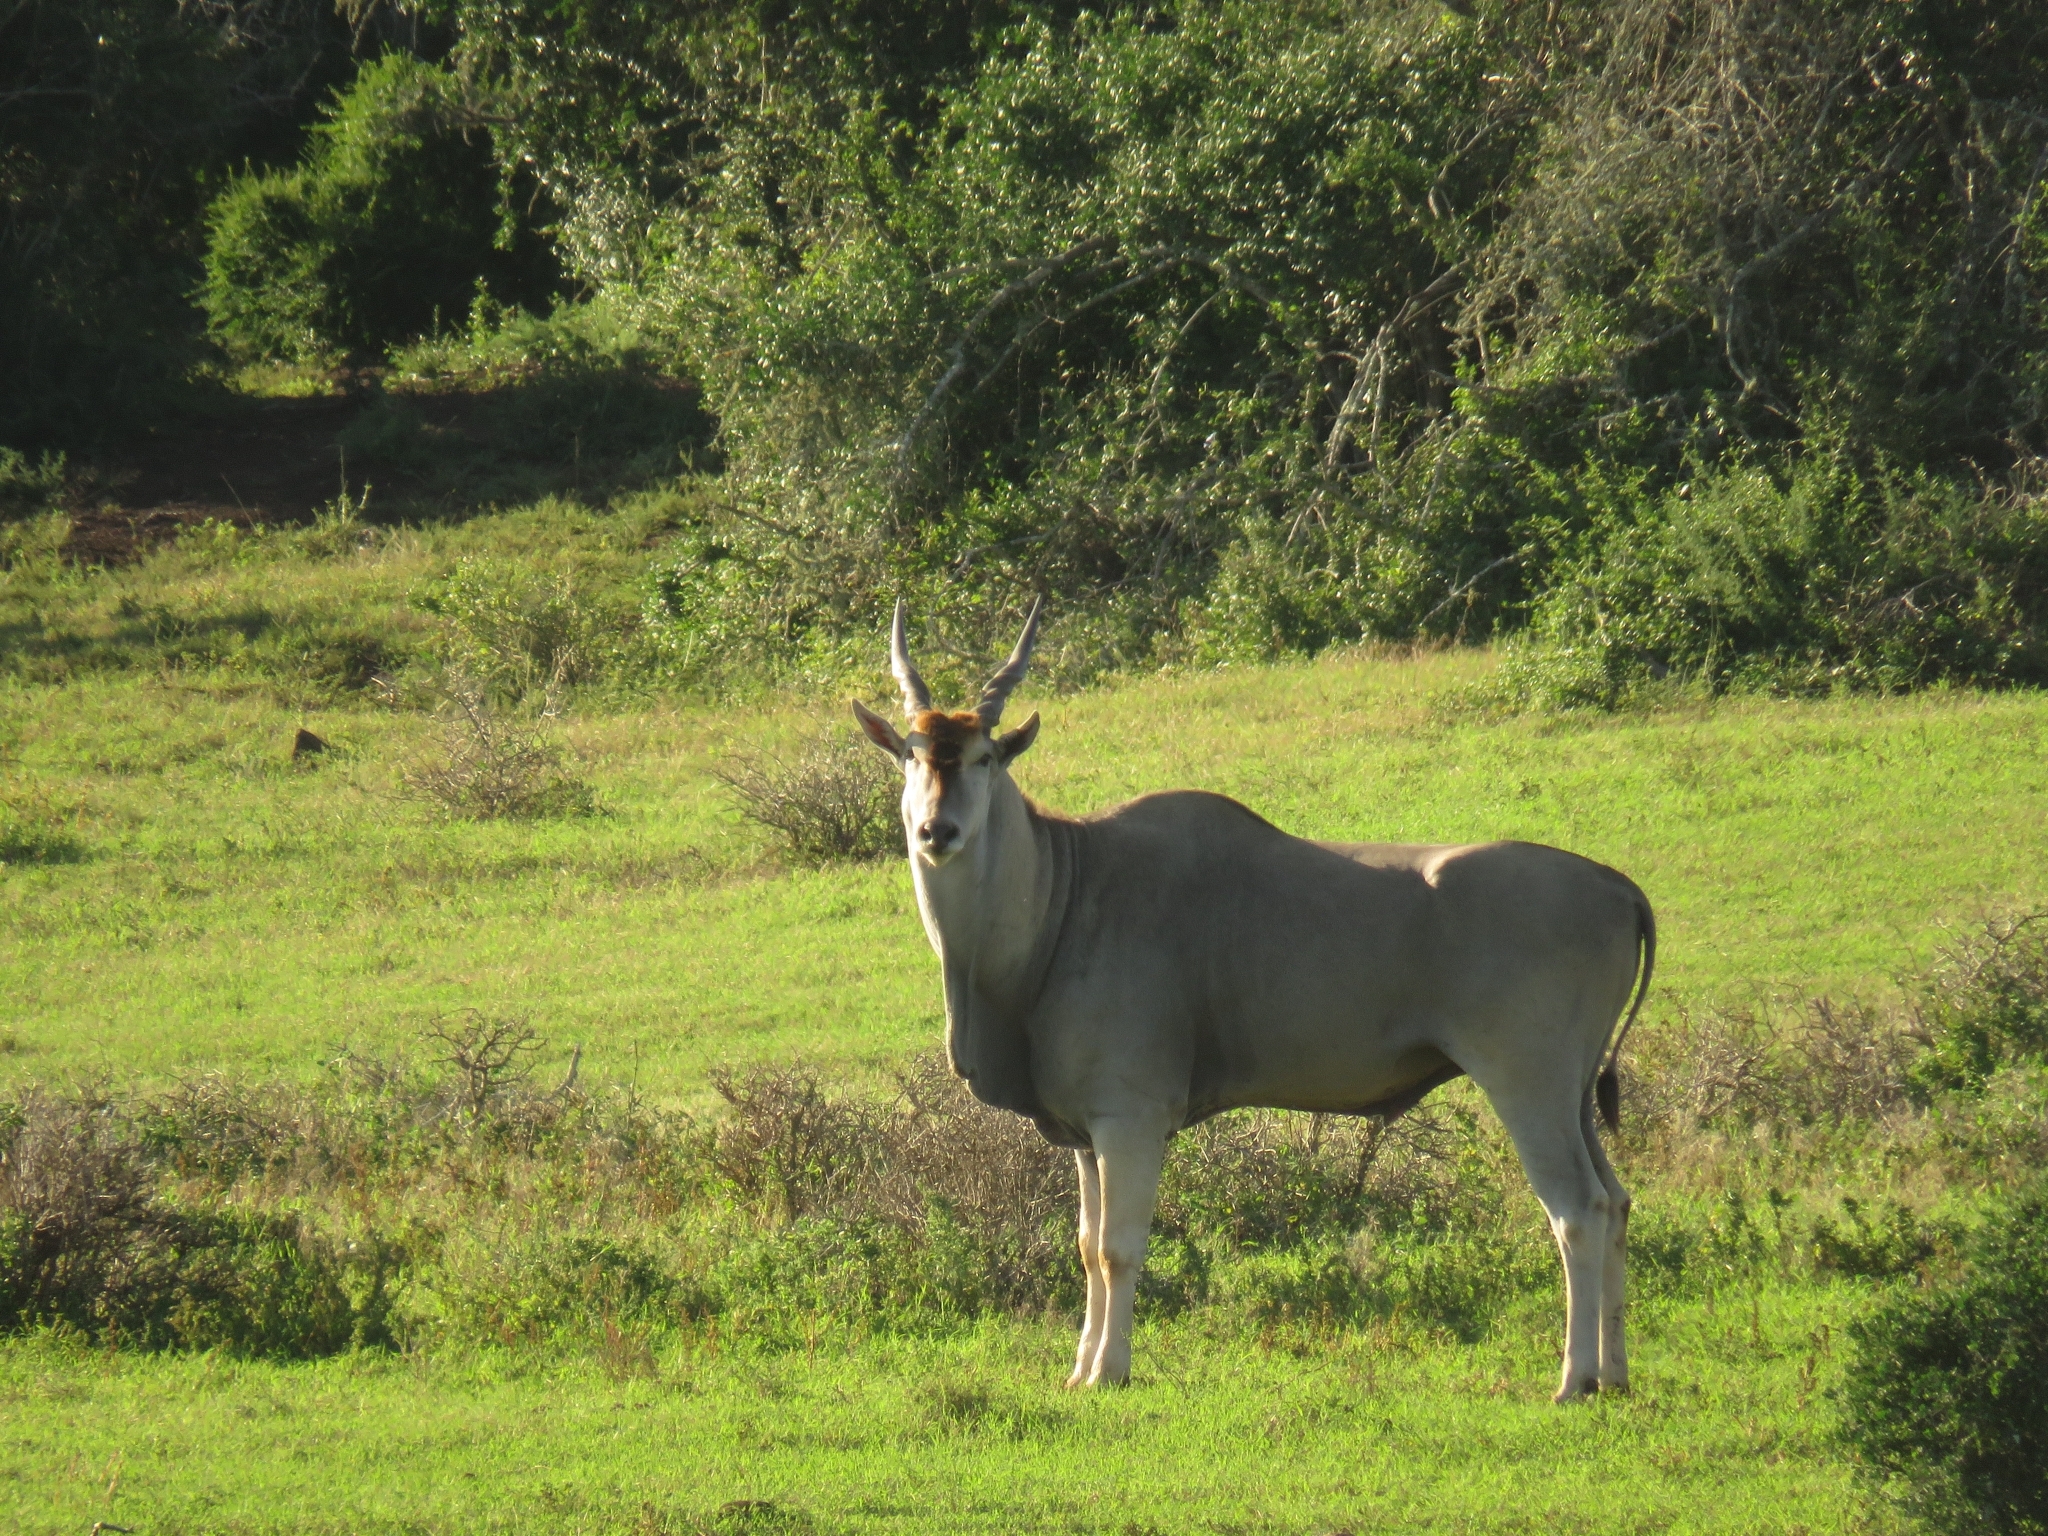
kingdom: Animalia
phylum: Chordata
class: Mammalia
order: Artiodactyla
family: Bovidae
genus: Taurotragus
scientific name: Taurotragus oryx
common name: Common eland
